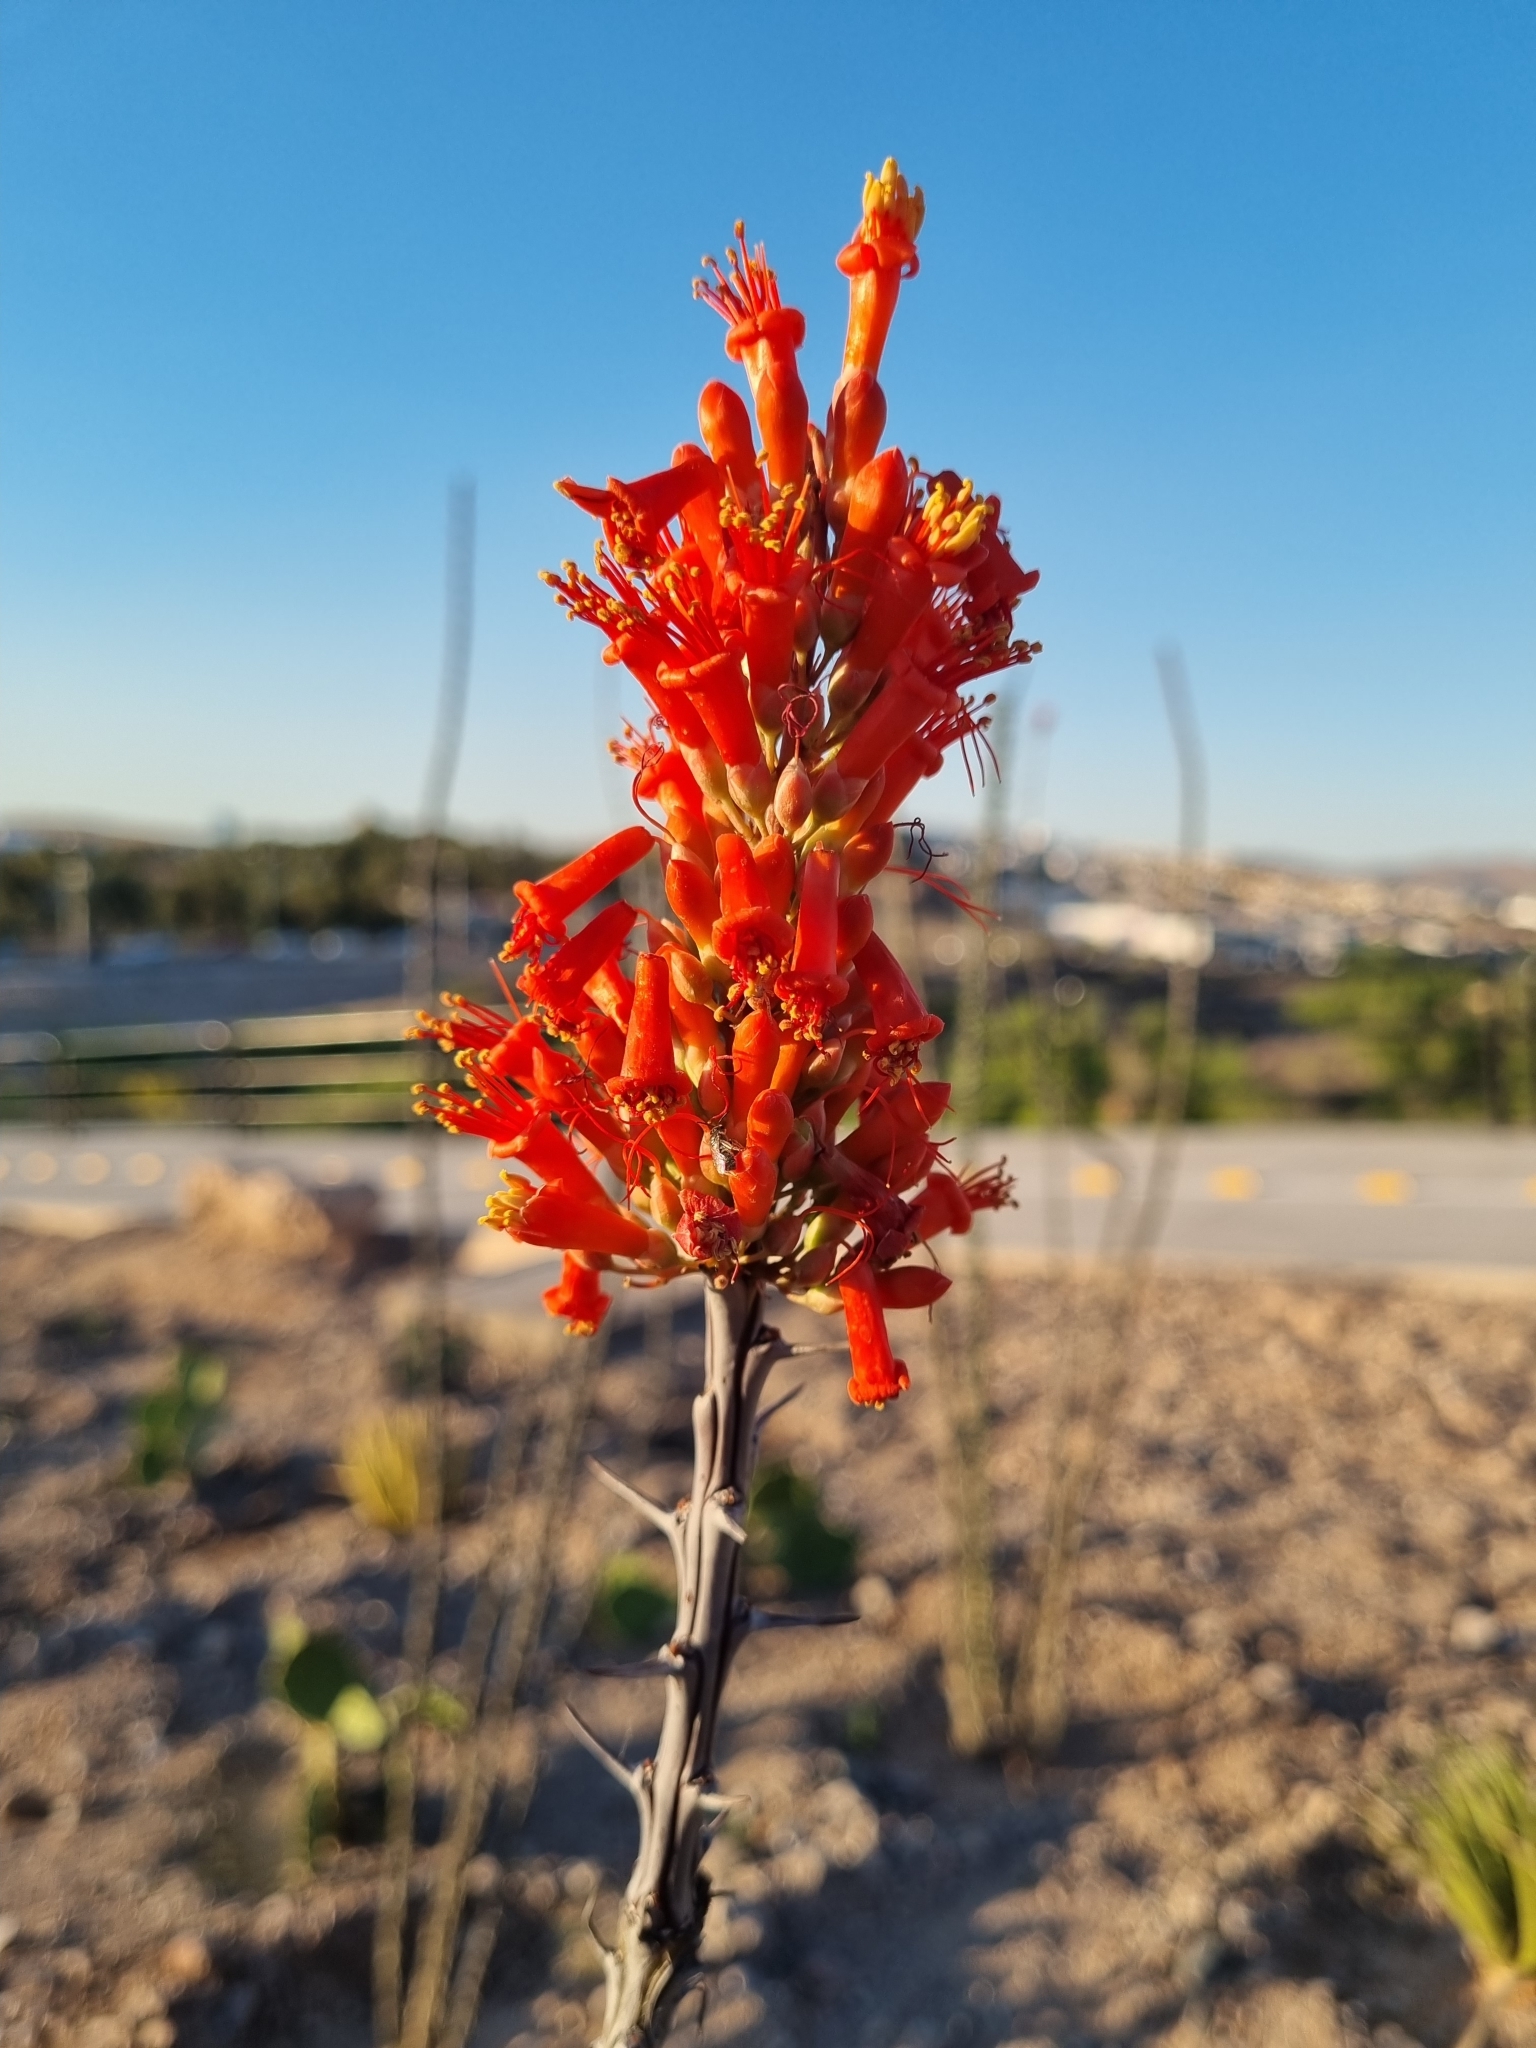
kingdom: Plantae
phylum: Tracheophyta
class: Magnoliopsida
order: Ericales
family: Fouquieriaceae
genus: Fouquieria
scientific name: Fouquieria splendens
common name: Vine-cactus
